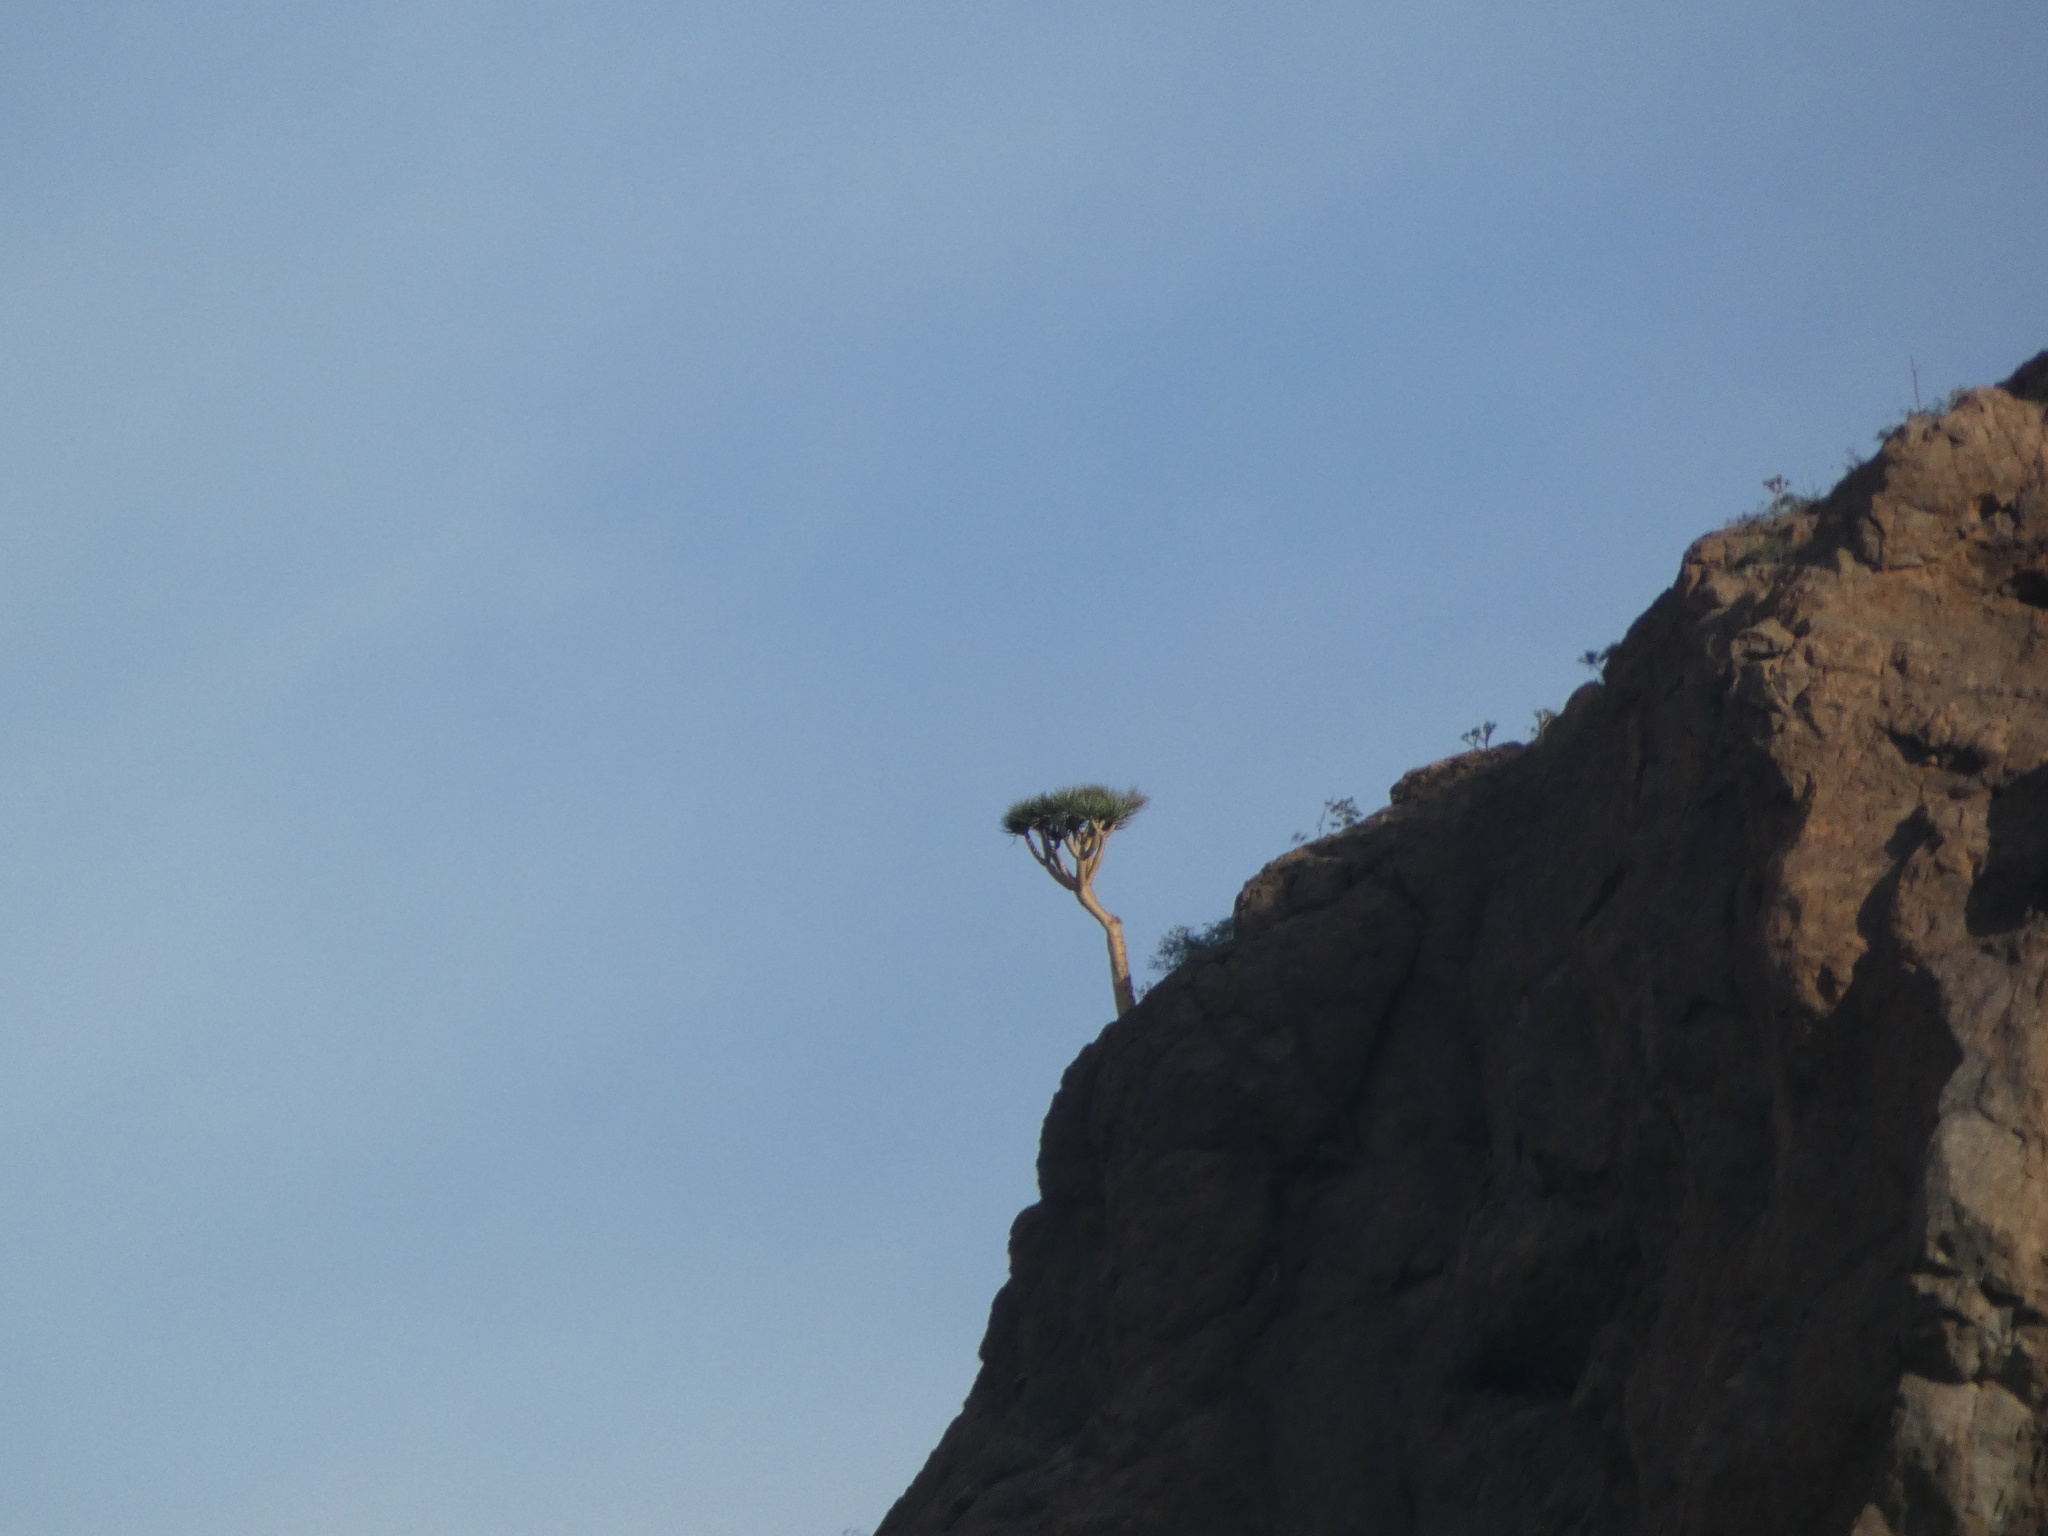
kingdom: Plantae
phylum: Tracheophyta
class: Liliopsida
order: Asparagales
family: Asparagaceae
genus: Dracaena
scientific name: Dracaena tamaranae
